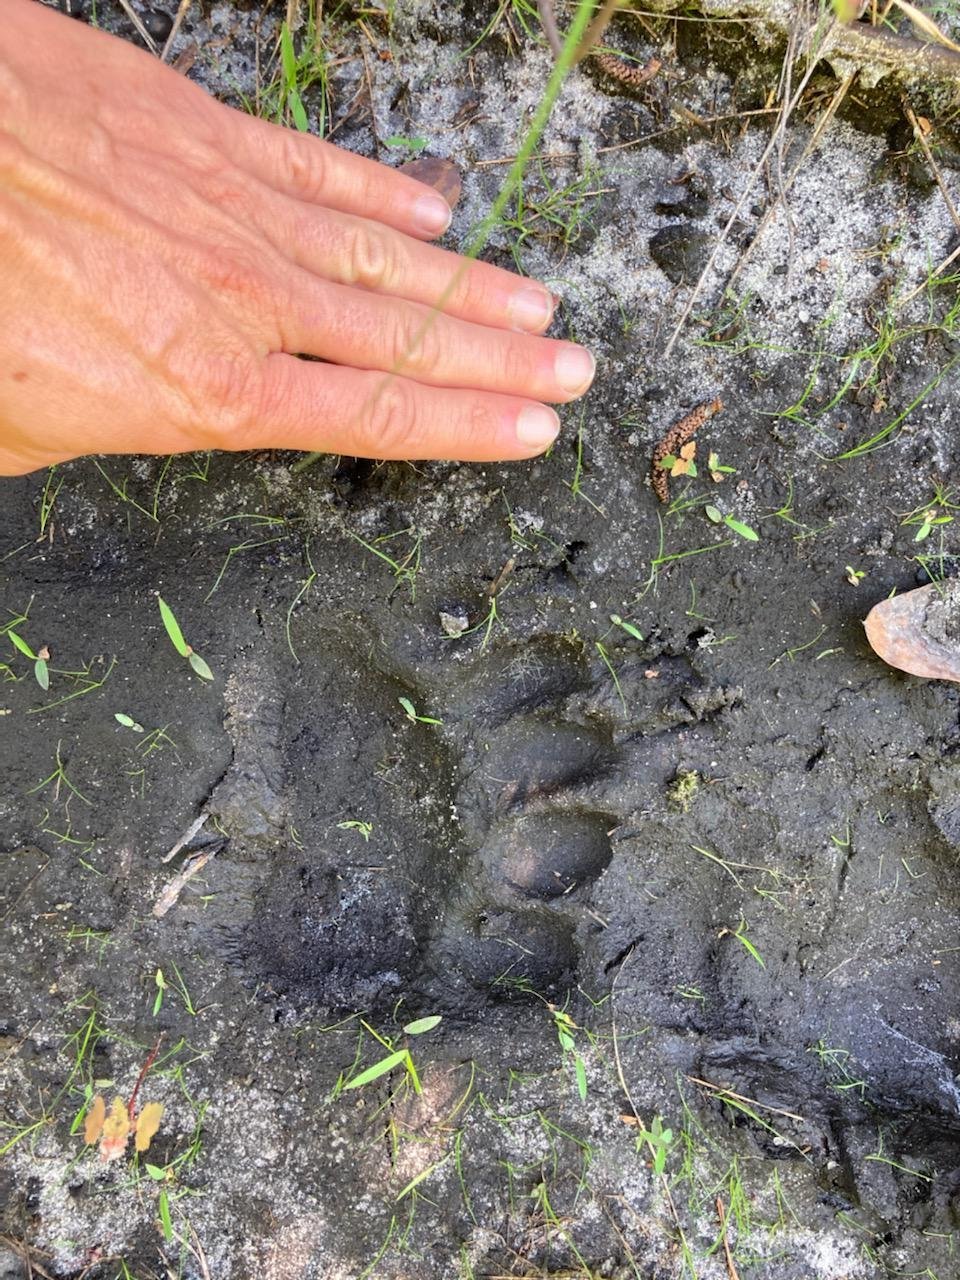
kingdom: Animalia
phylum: Chordata
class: Mammalia
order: Carnivora
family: Ursidae
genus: Ursus
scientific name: Ursus americanus
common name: American black bear
